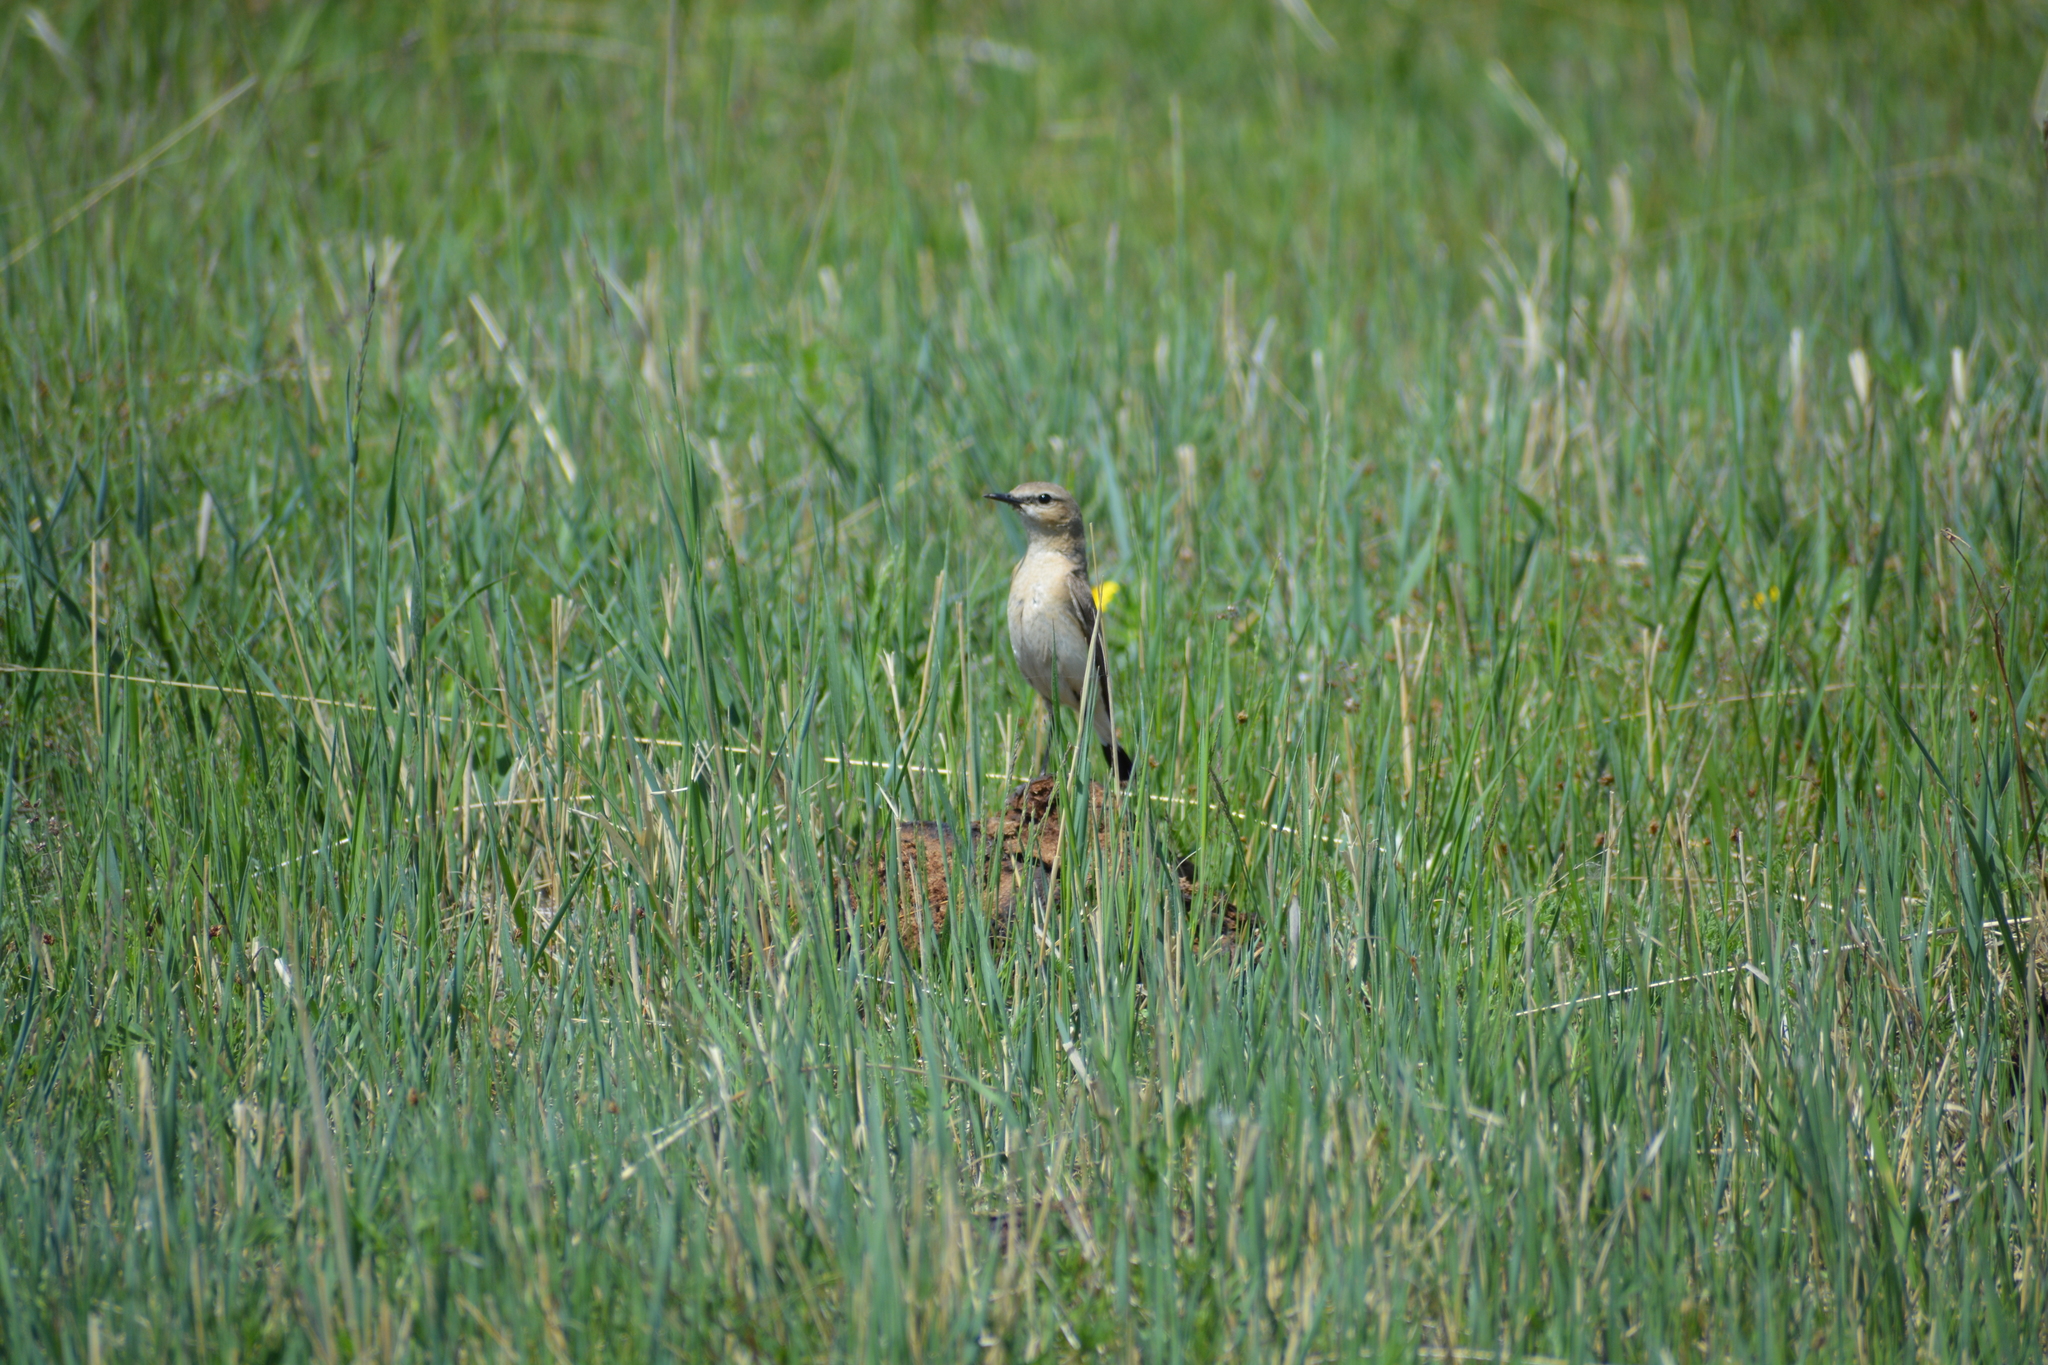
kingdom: Animalia
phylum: Chordata
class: Aves
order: Passeriformes
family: Muscicapidae
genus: Oenanthe
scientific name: Oenanthe isabellina
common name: Isabelline wheatear
